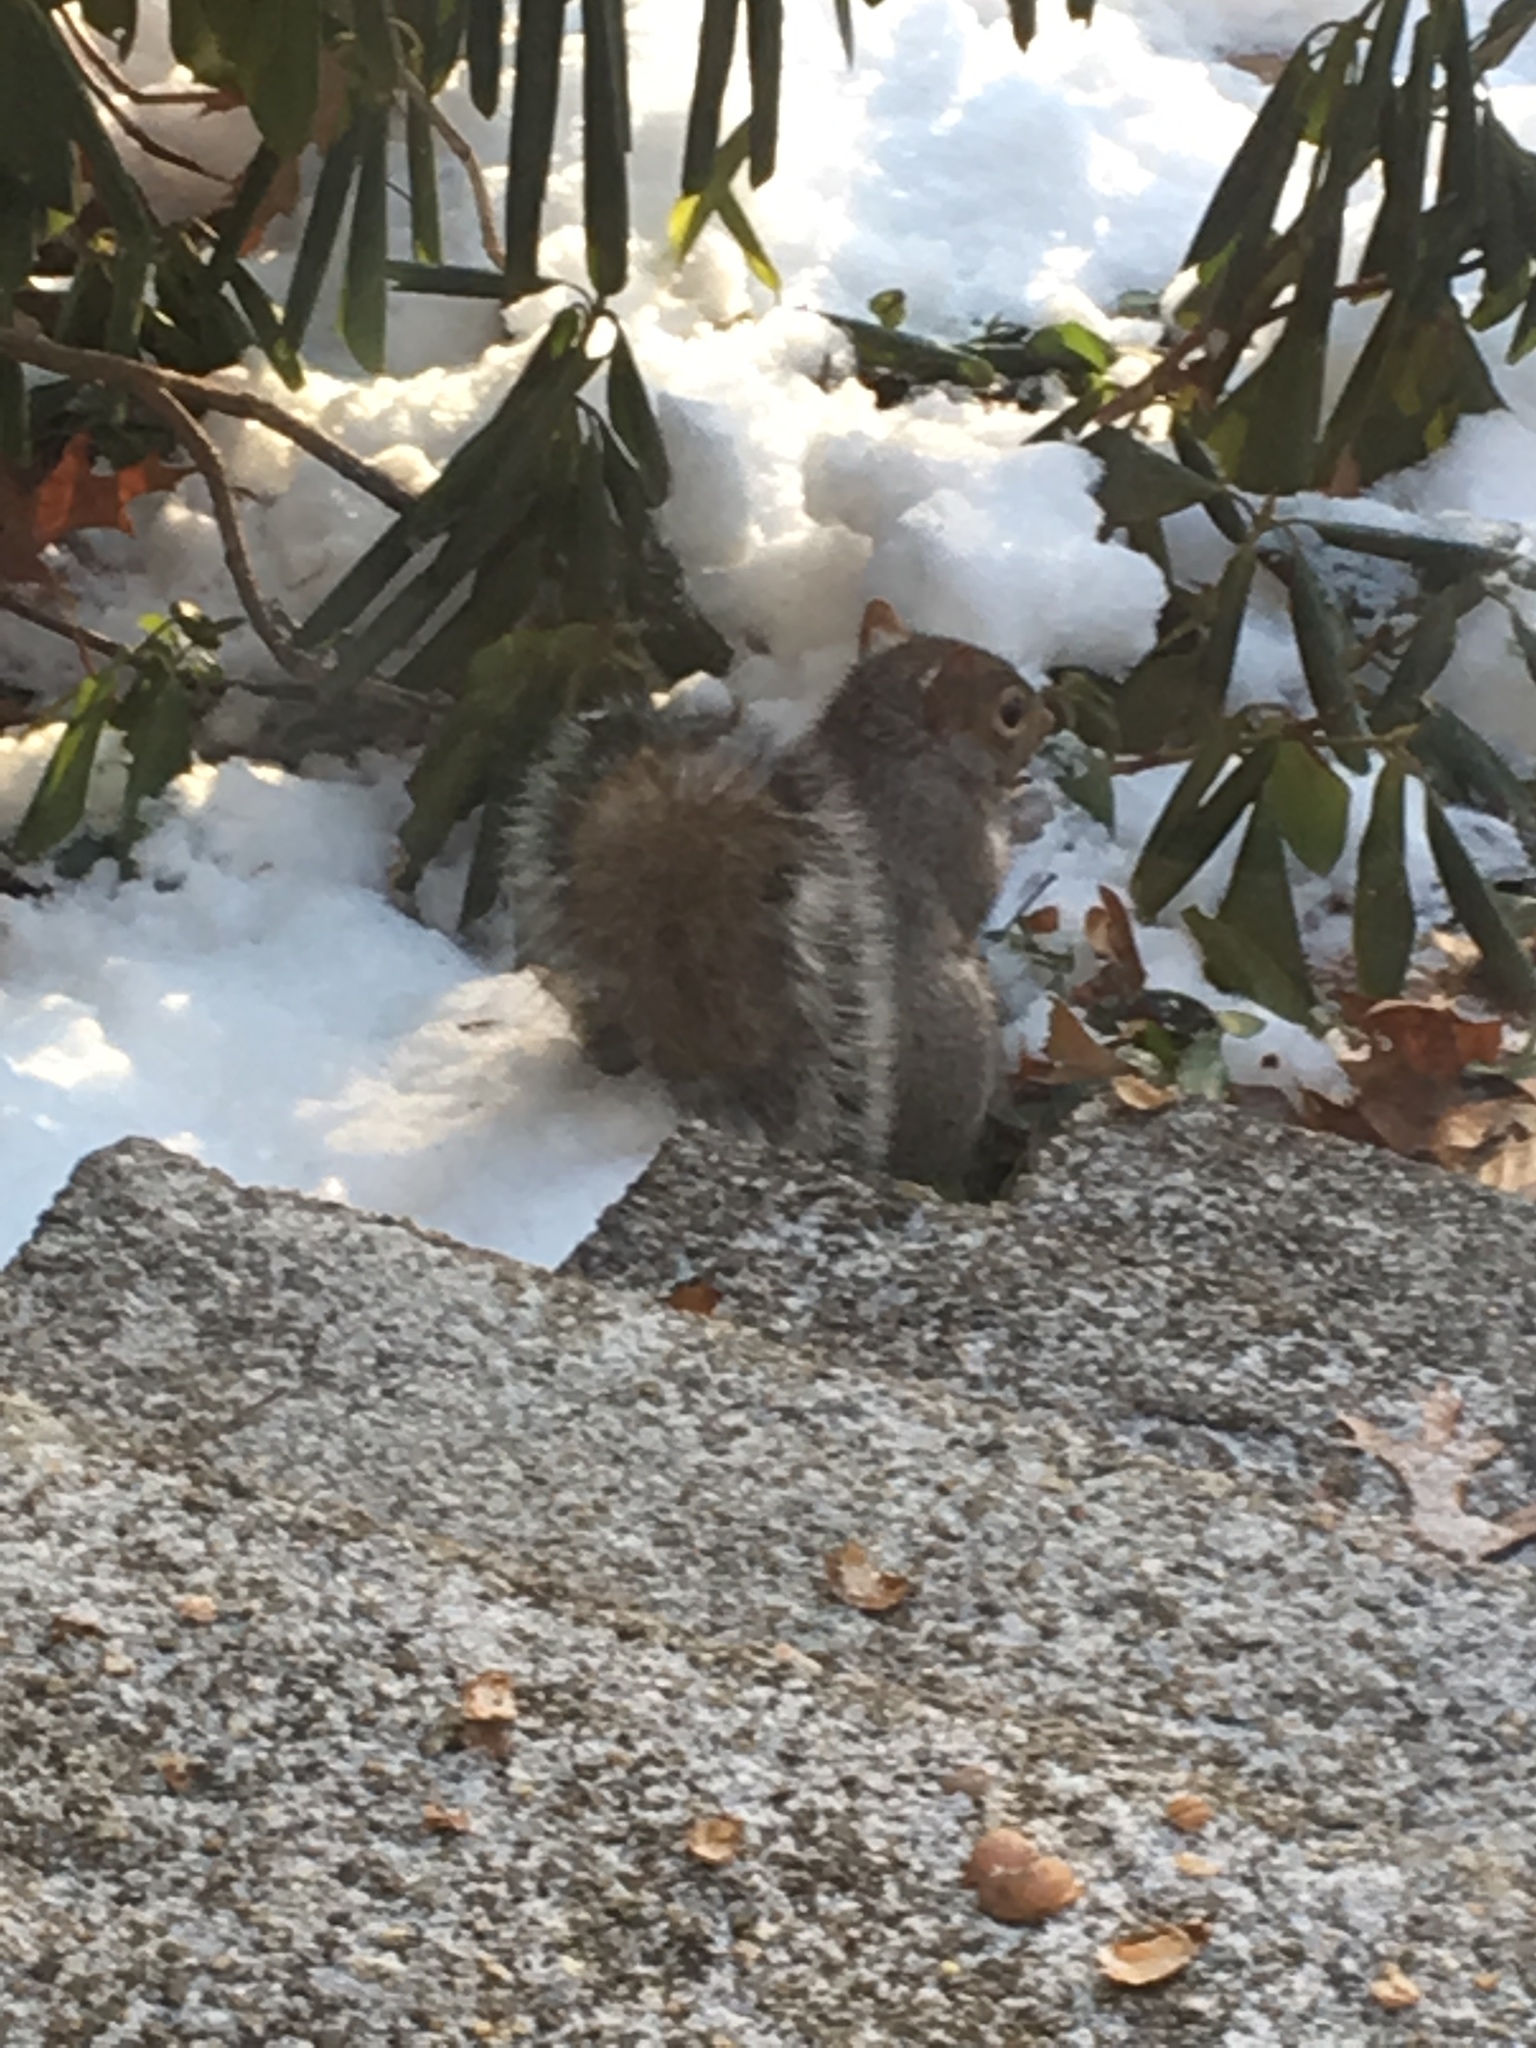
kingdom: Animalia
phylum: Chordata
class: Mammalia
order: Rodentia
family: Sciuridae
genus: Sciurus
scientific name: Sciurus carolinensis
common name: Eastern gray squirrel
